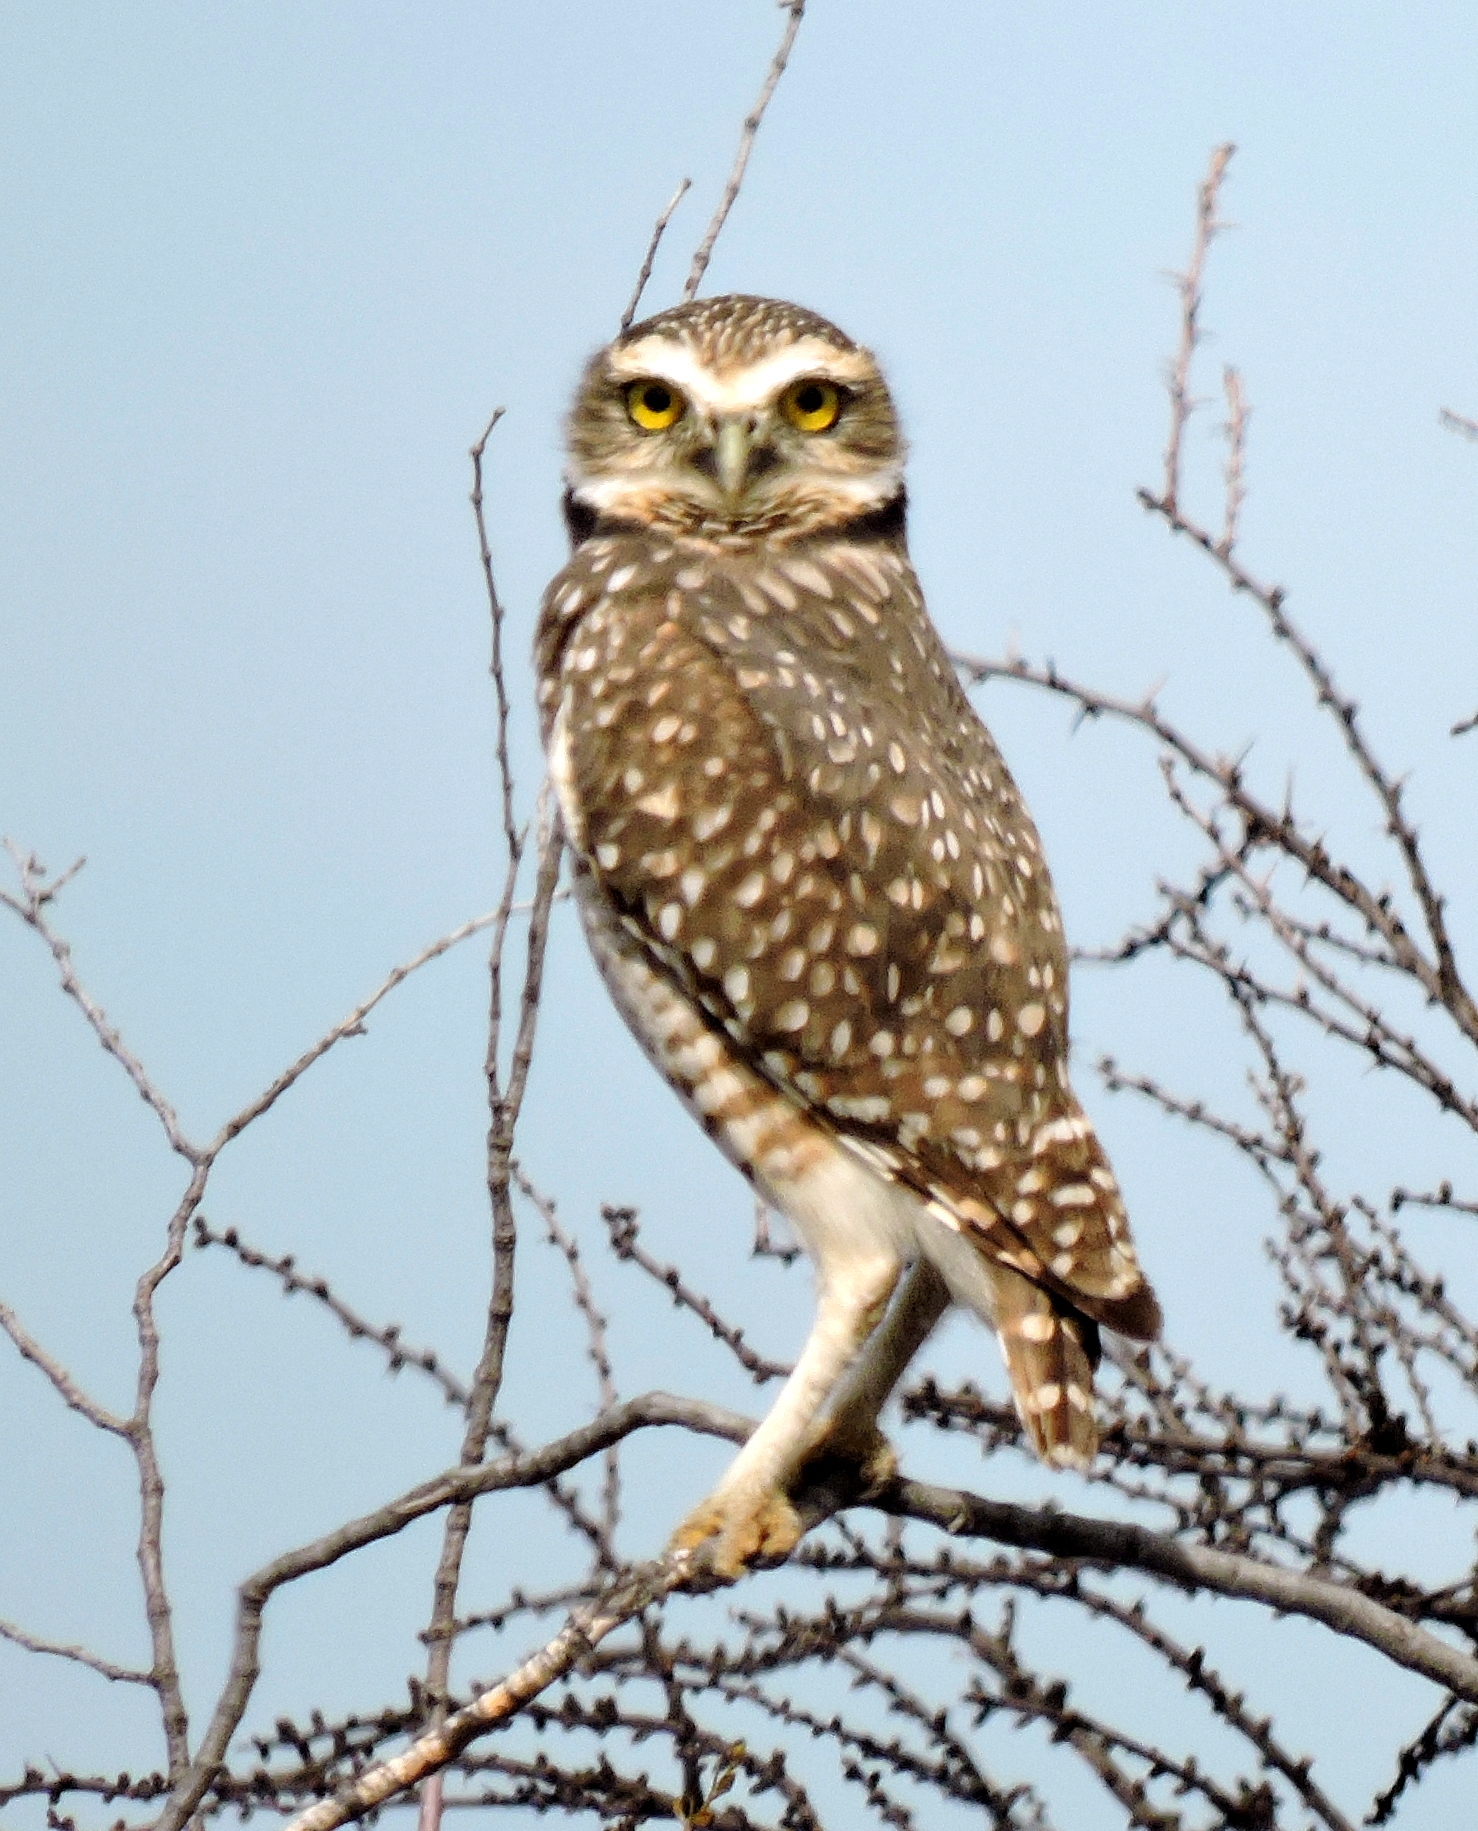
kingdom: Animalia
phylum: Chordata
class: Aves
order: Strigiformes
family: Strigidae
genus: Athene
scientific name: Athene cunicularia
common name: Burrowing owl
